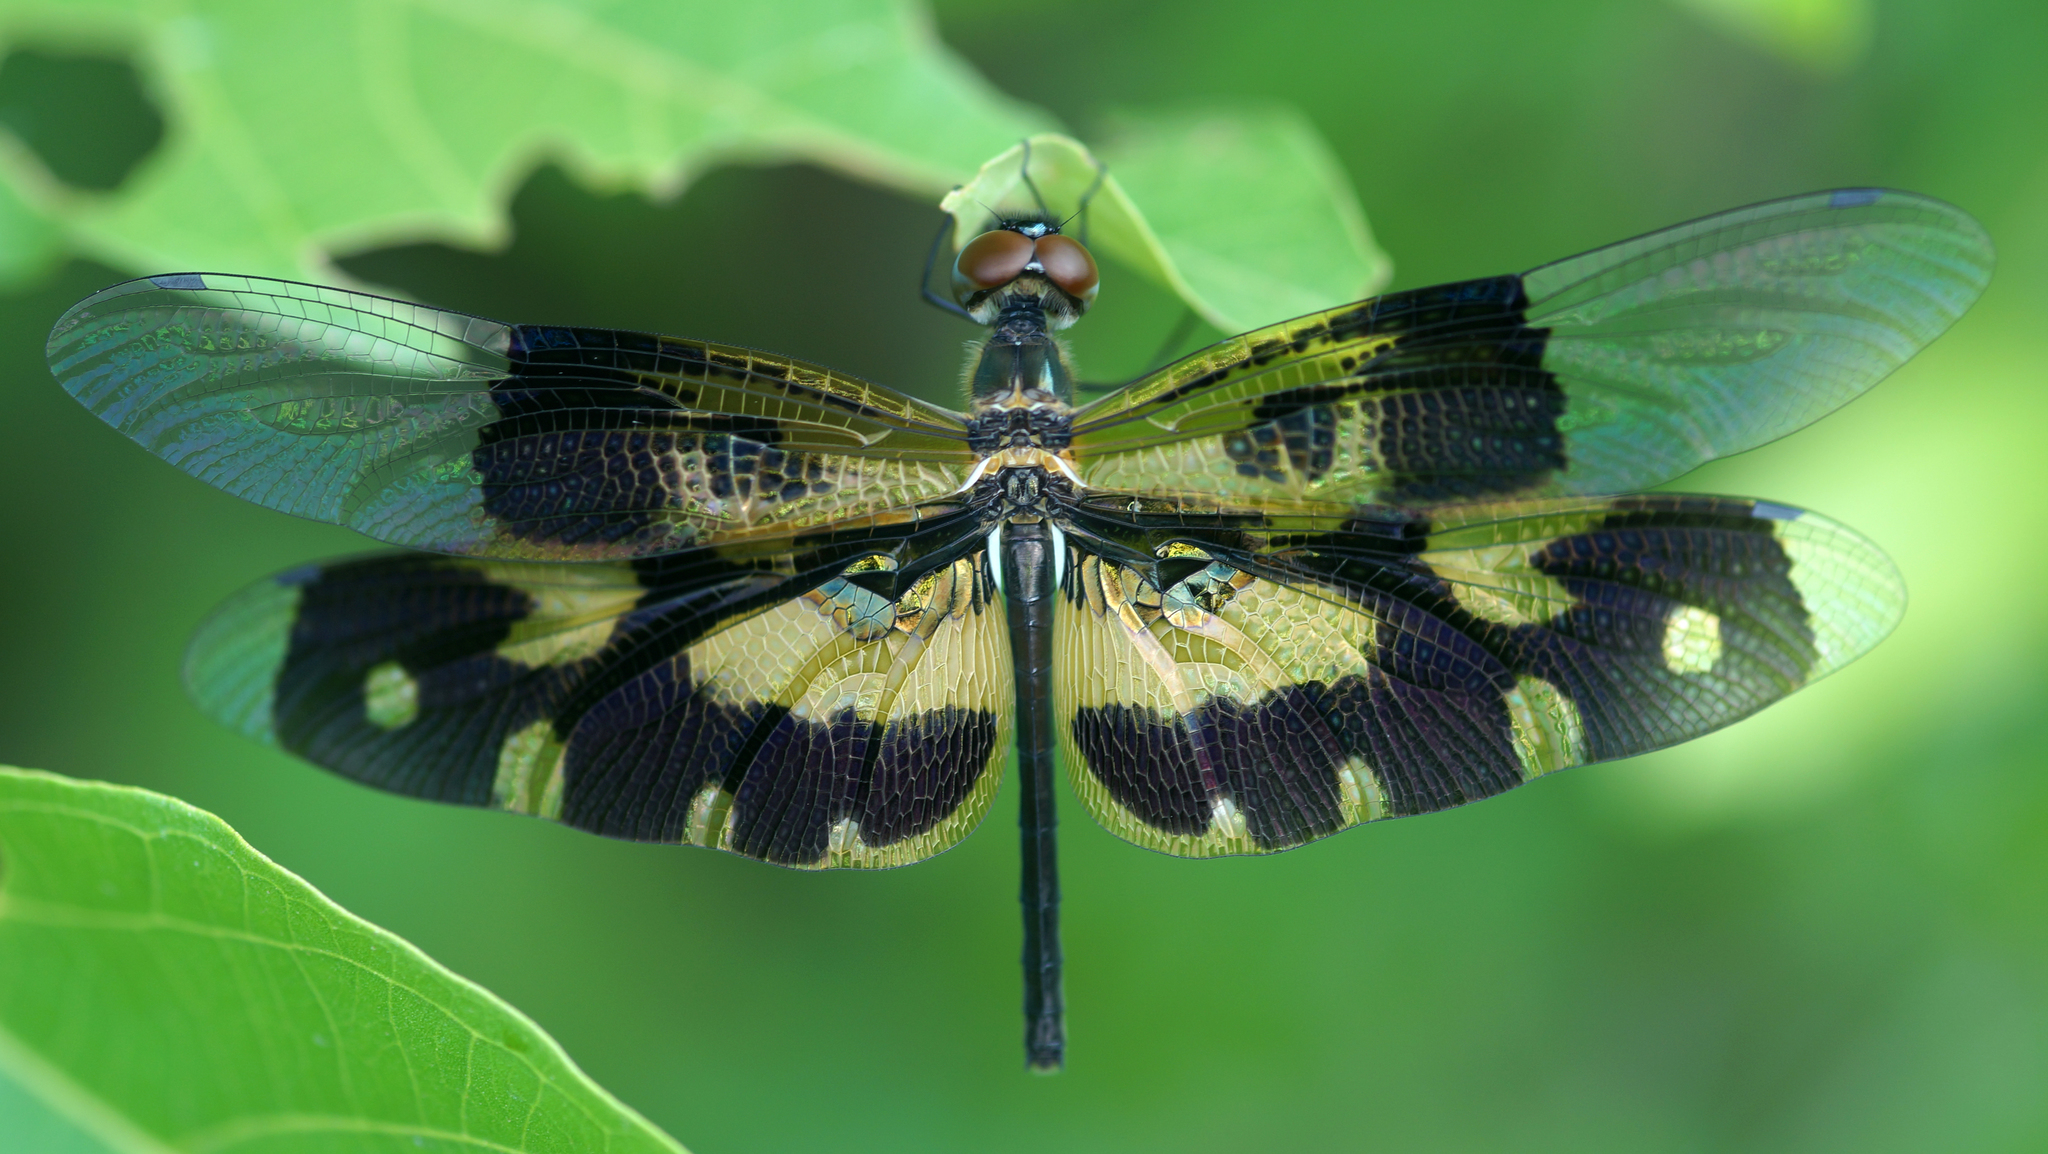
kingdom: Animalia
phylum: Arthropoda
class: Insecta
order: Odonata
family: Libellulidae
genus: Rhyothemis
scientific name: Rhyothemis variegata
